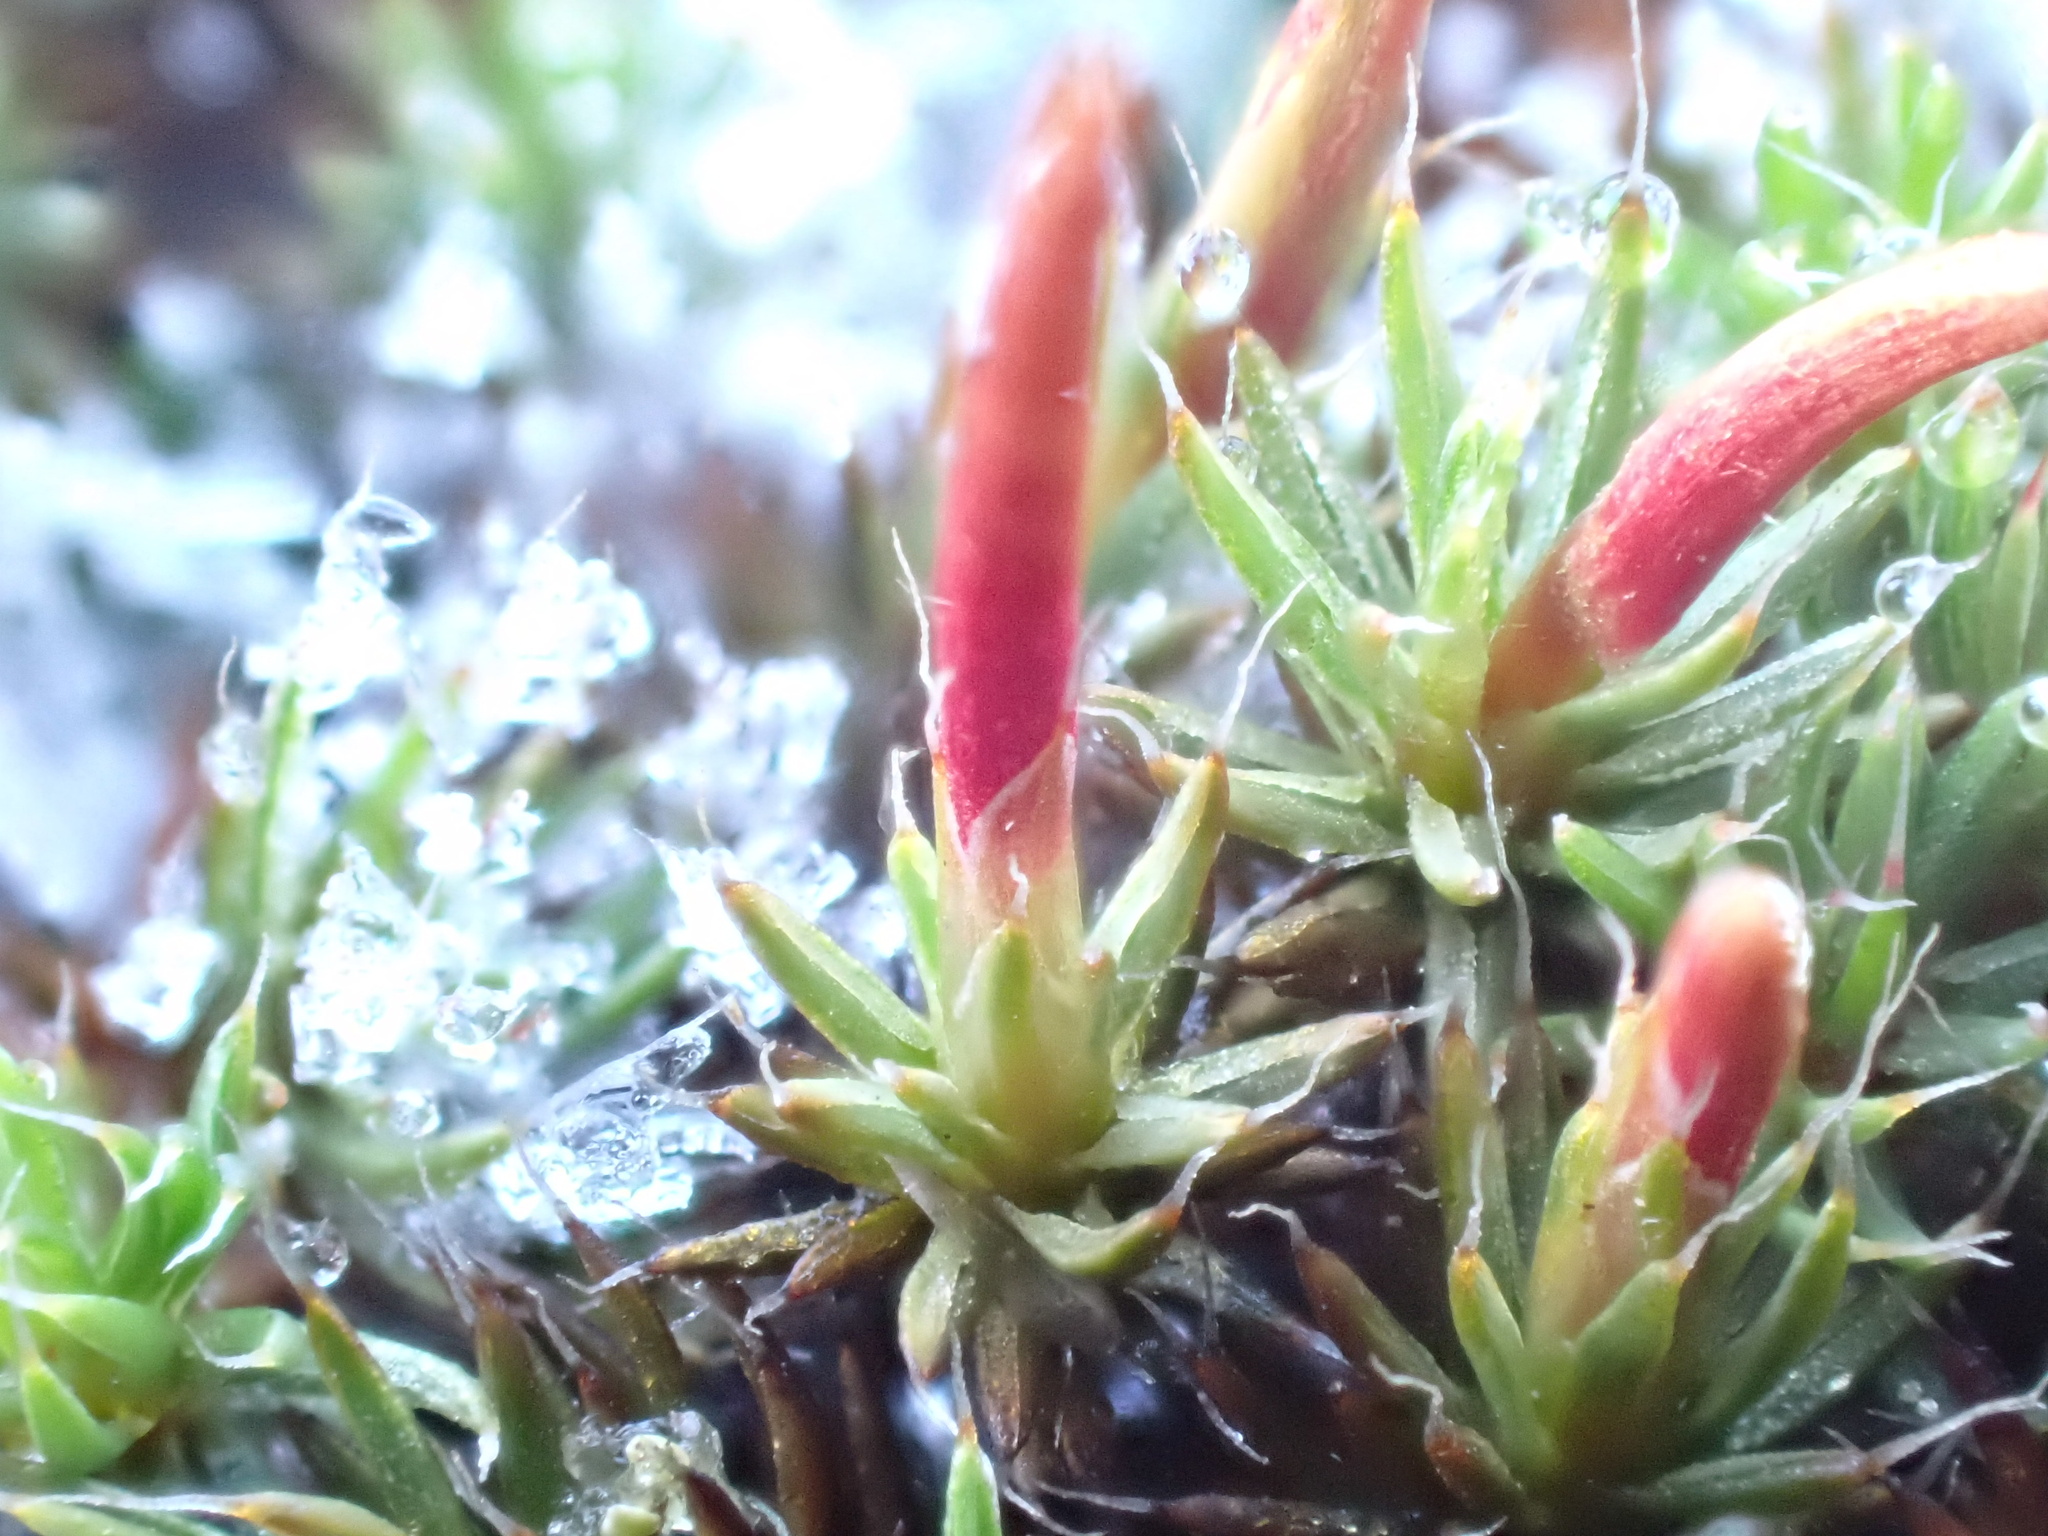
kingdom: Plantae
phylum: Bryophyta
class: Polytrichopsida
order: Polytrichales
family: Polytrichaceae
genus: Polytrichum
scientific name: Polytrichum piliferum
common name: Bristly haircap
